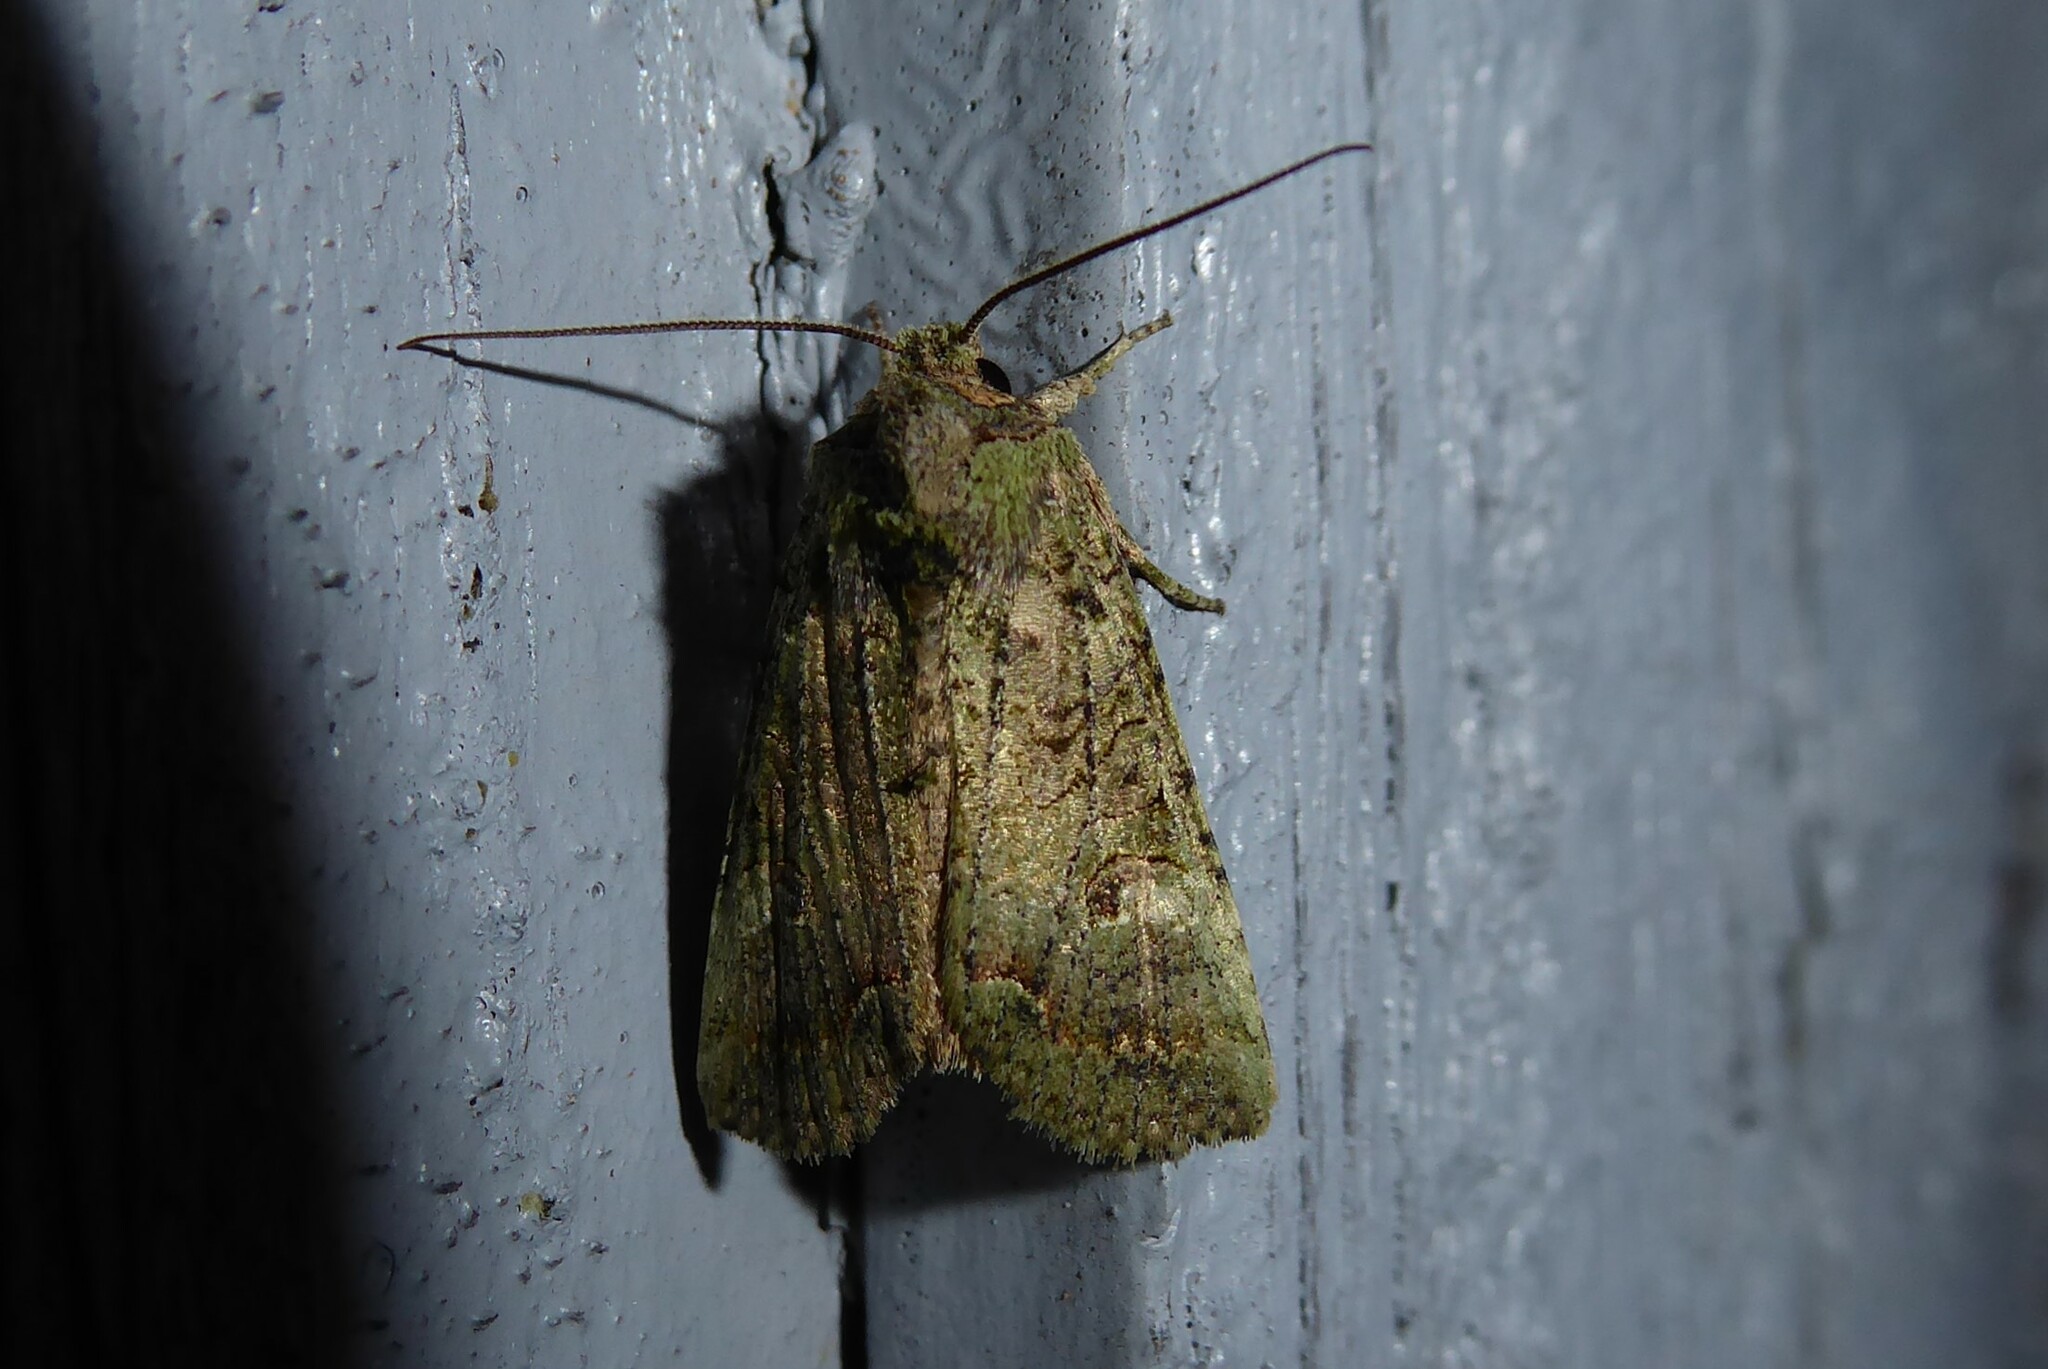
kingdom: Animalia
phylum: Arthropoda
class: Insecta
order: Lepidoptera
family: Noctuidae
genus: Meterana
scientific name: Meterana levis
